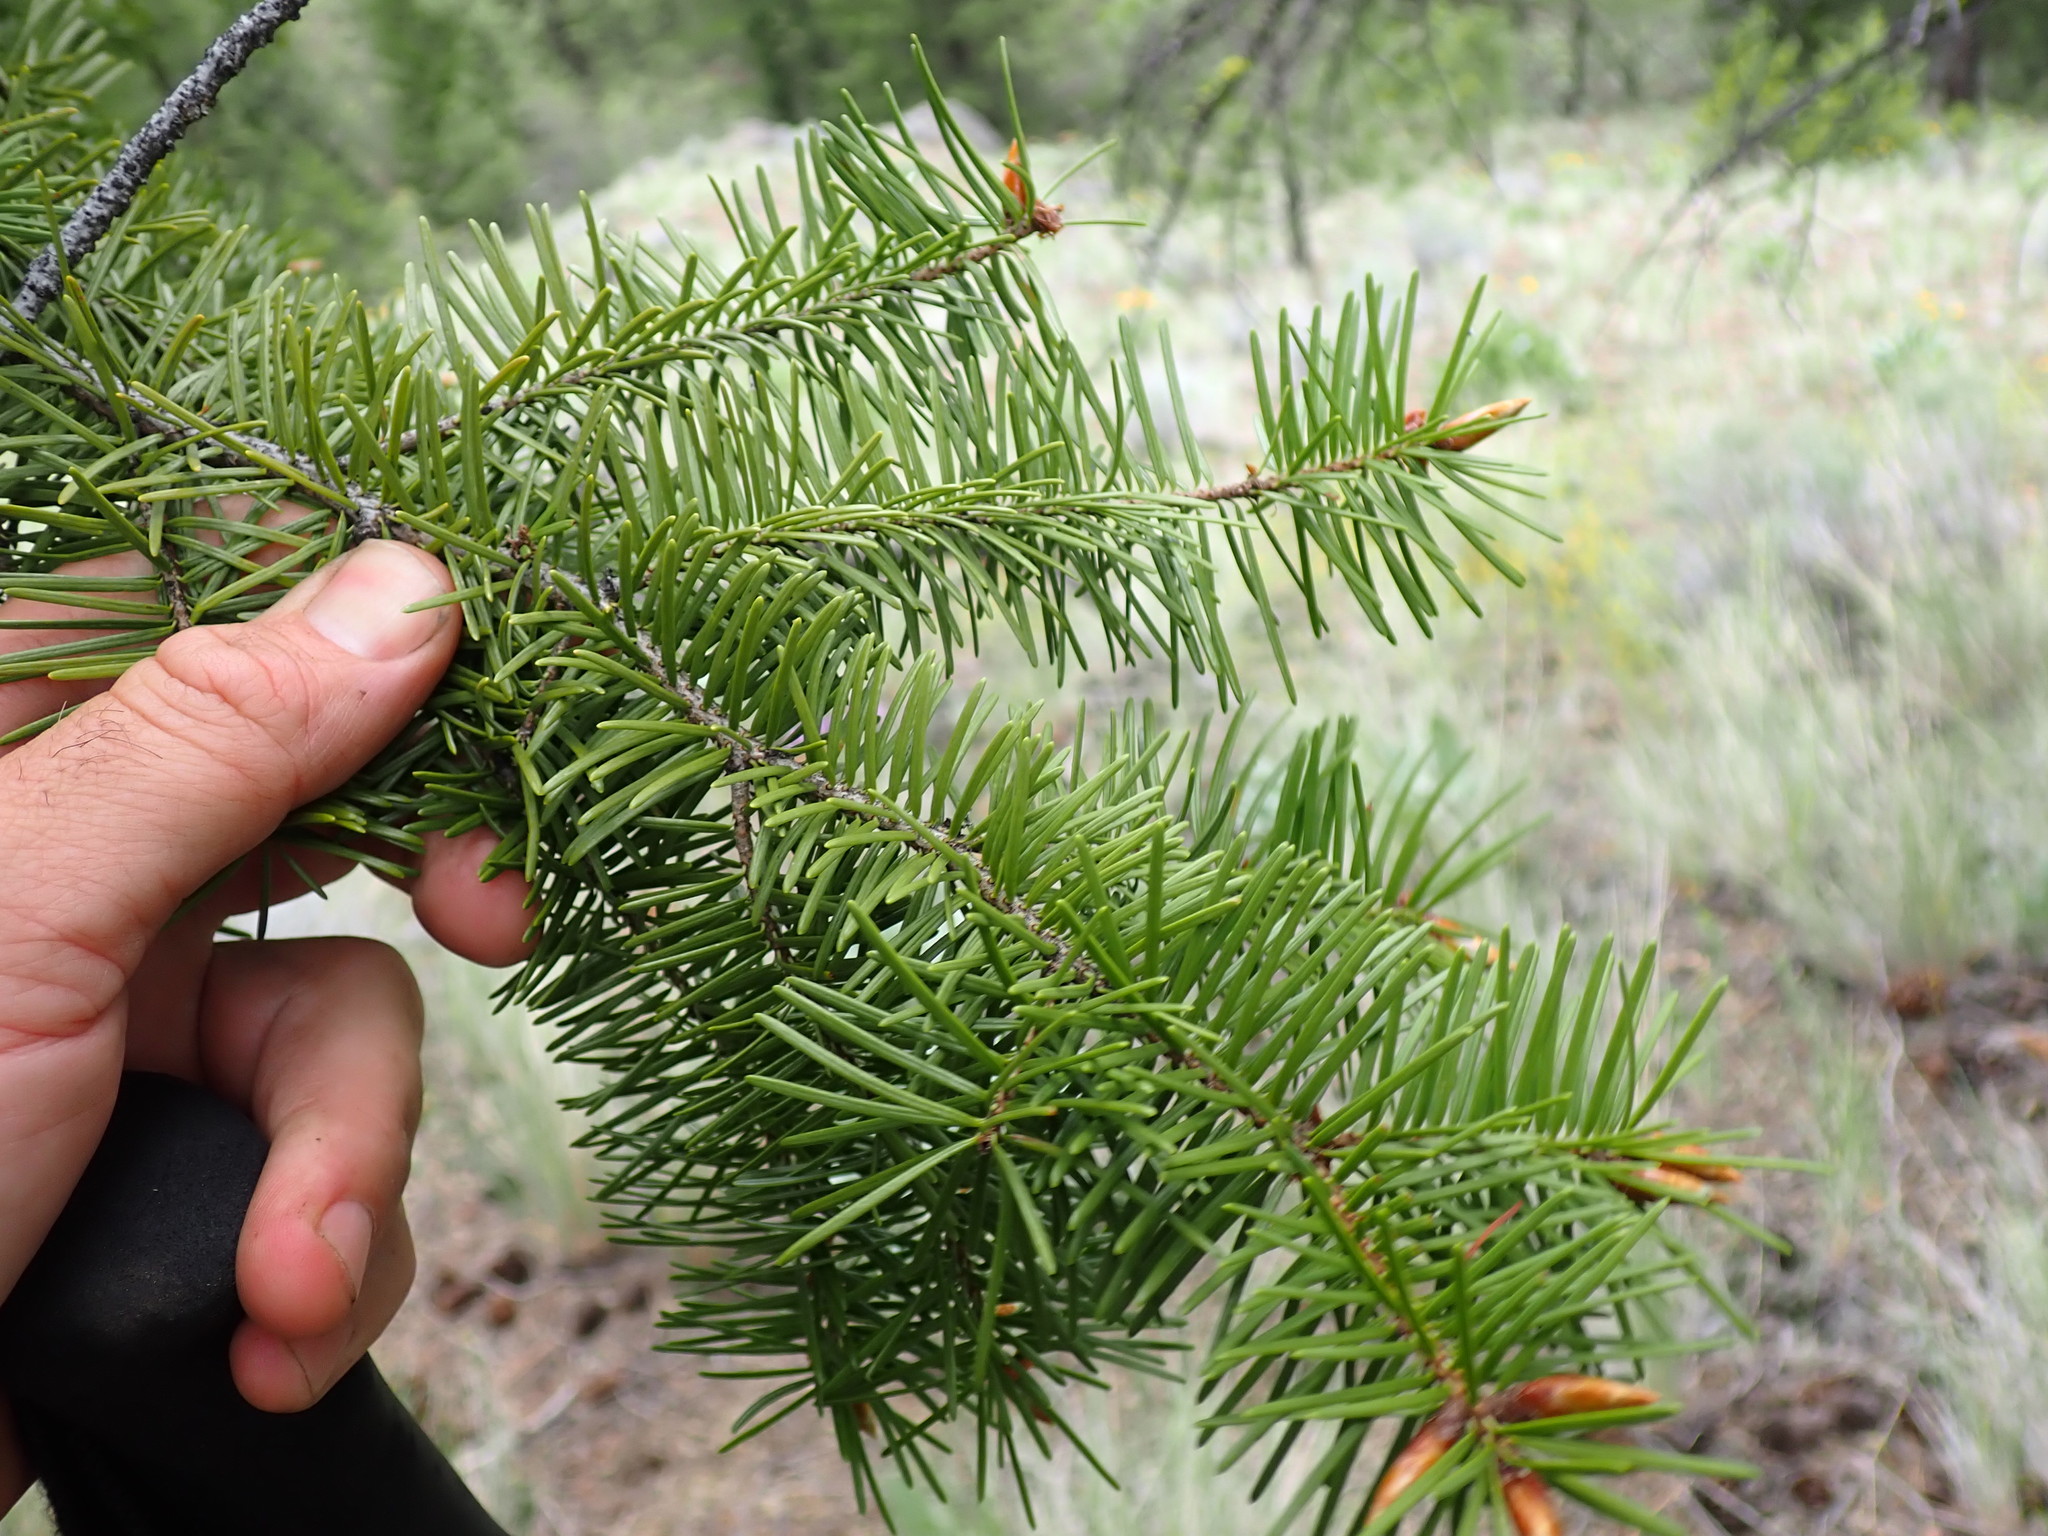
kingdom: Plantae
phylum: Tracheophyta
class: Pinopsida
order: Pinales
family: Pinaceae
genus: Pseudotsuga
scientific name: Pseudotsuga menziesii
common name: Douglas fir
